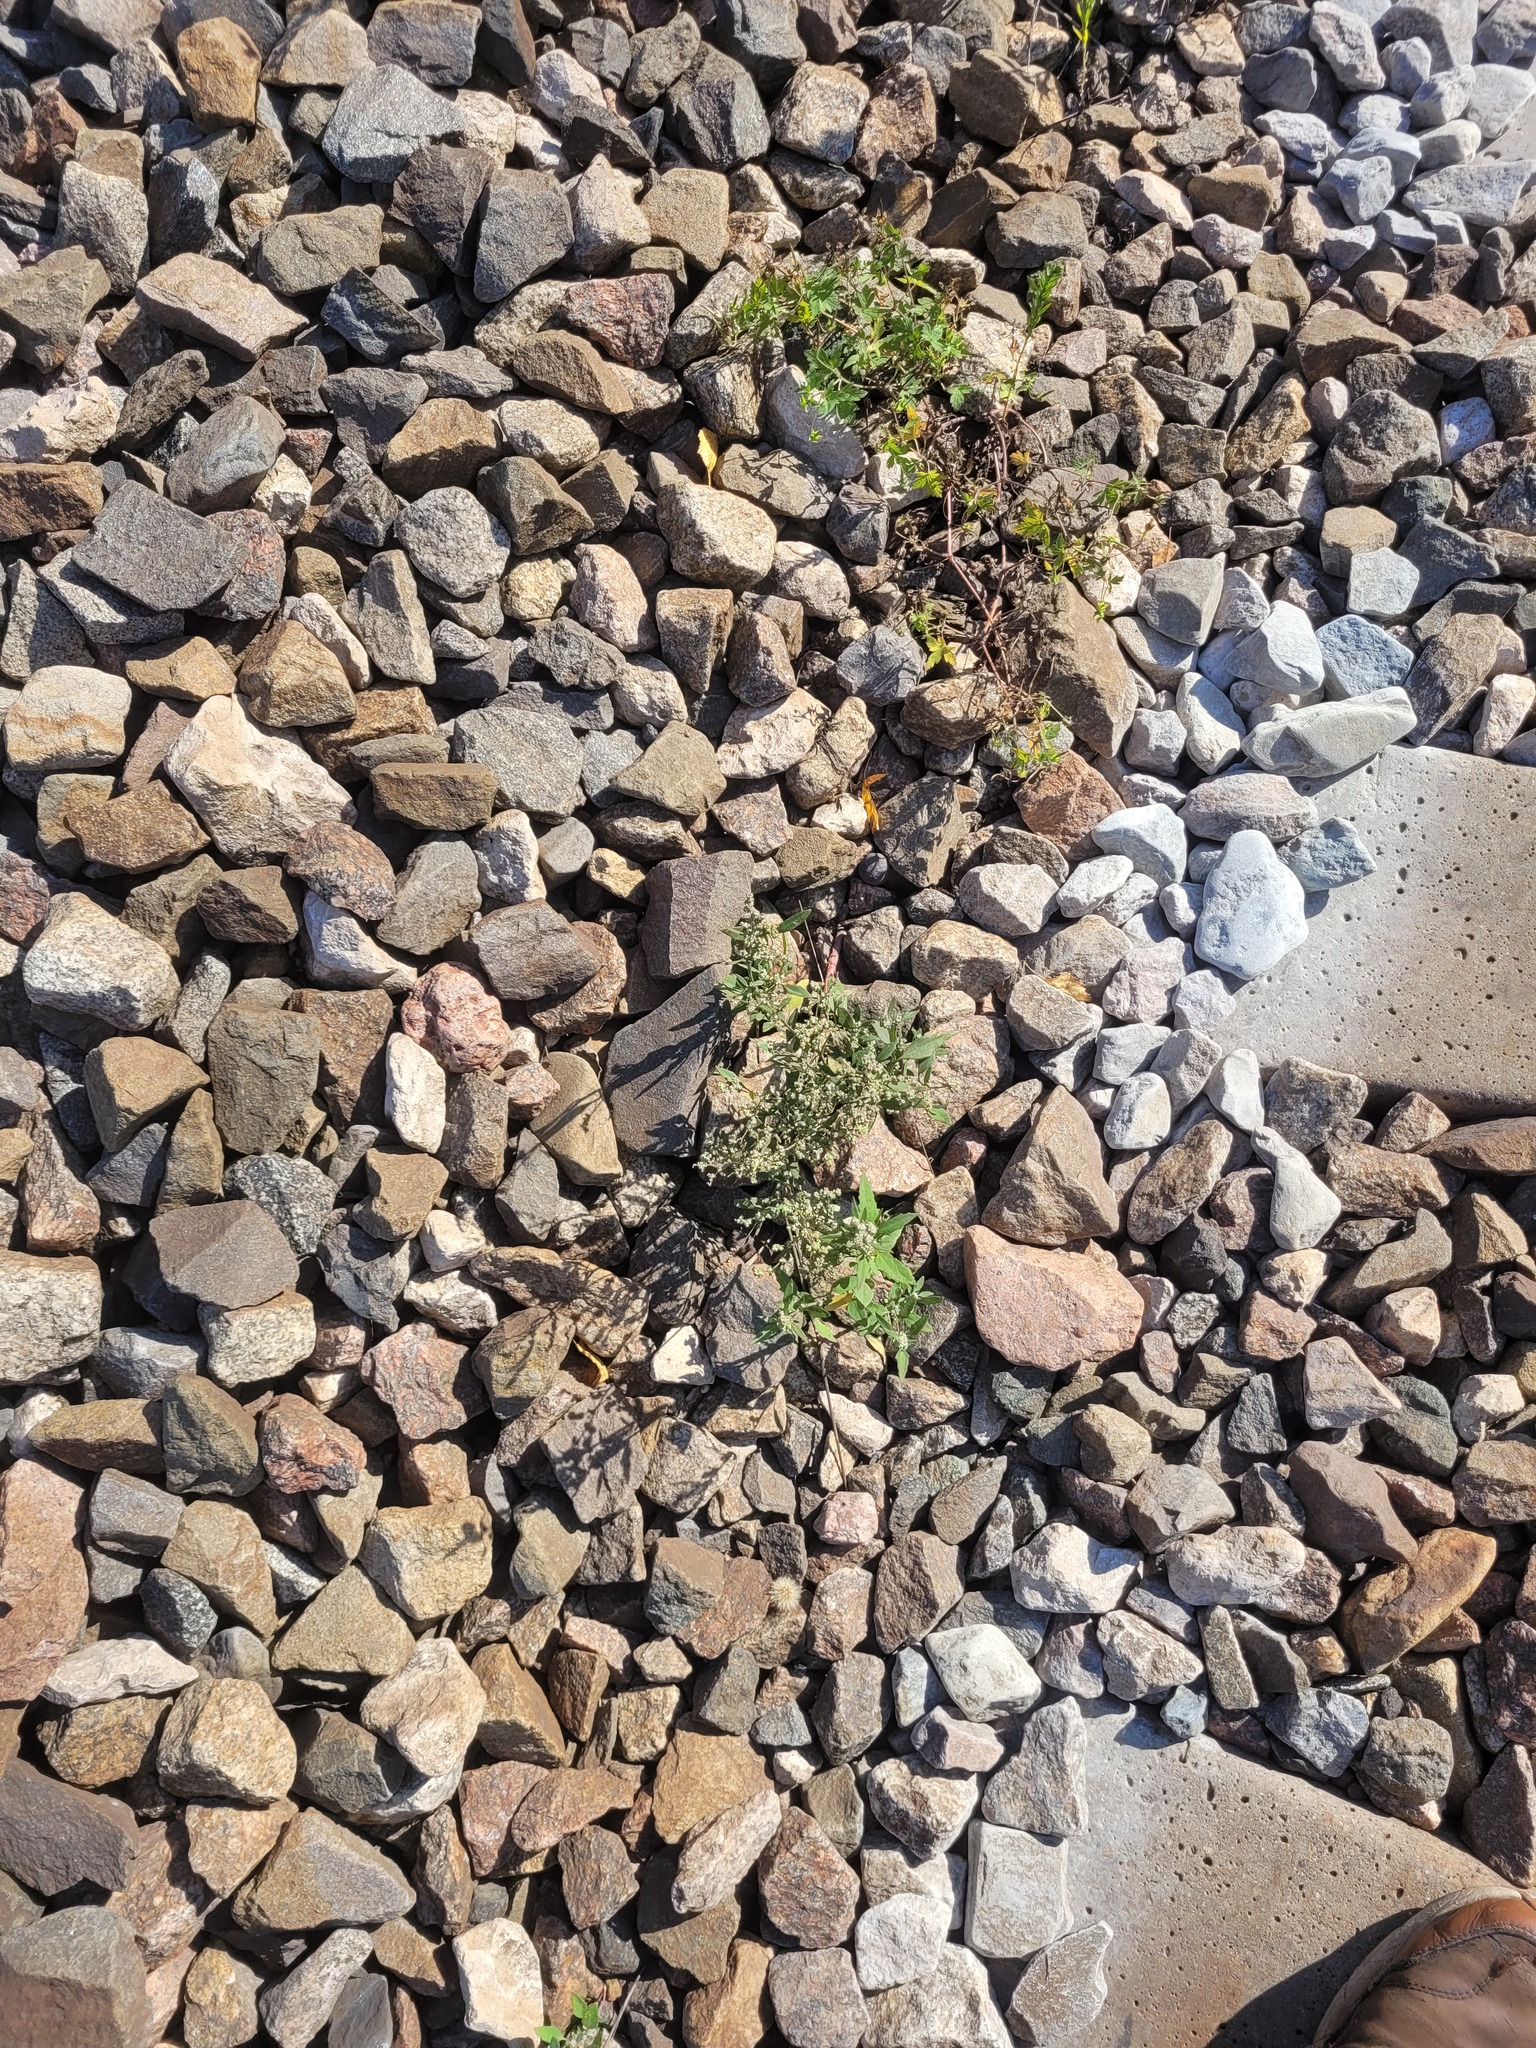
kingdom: Plantae
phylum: Tracheophyta
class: Magnoliopsida
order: Caryophyllales
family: Amaranthaceae
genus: Chenopodium
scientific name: Chenopodium album
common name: Fat-hen
